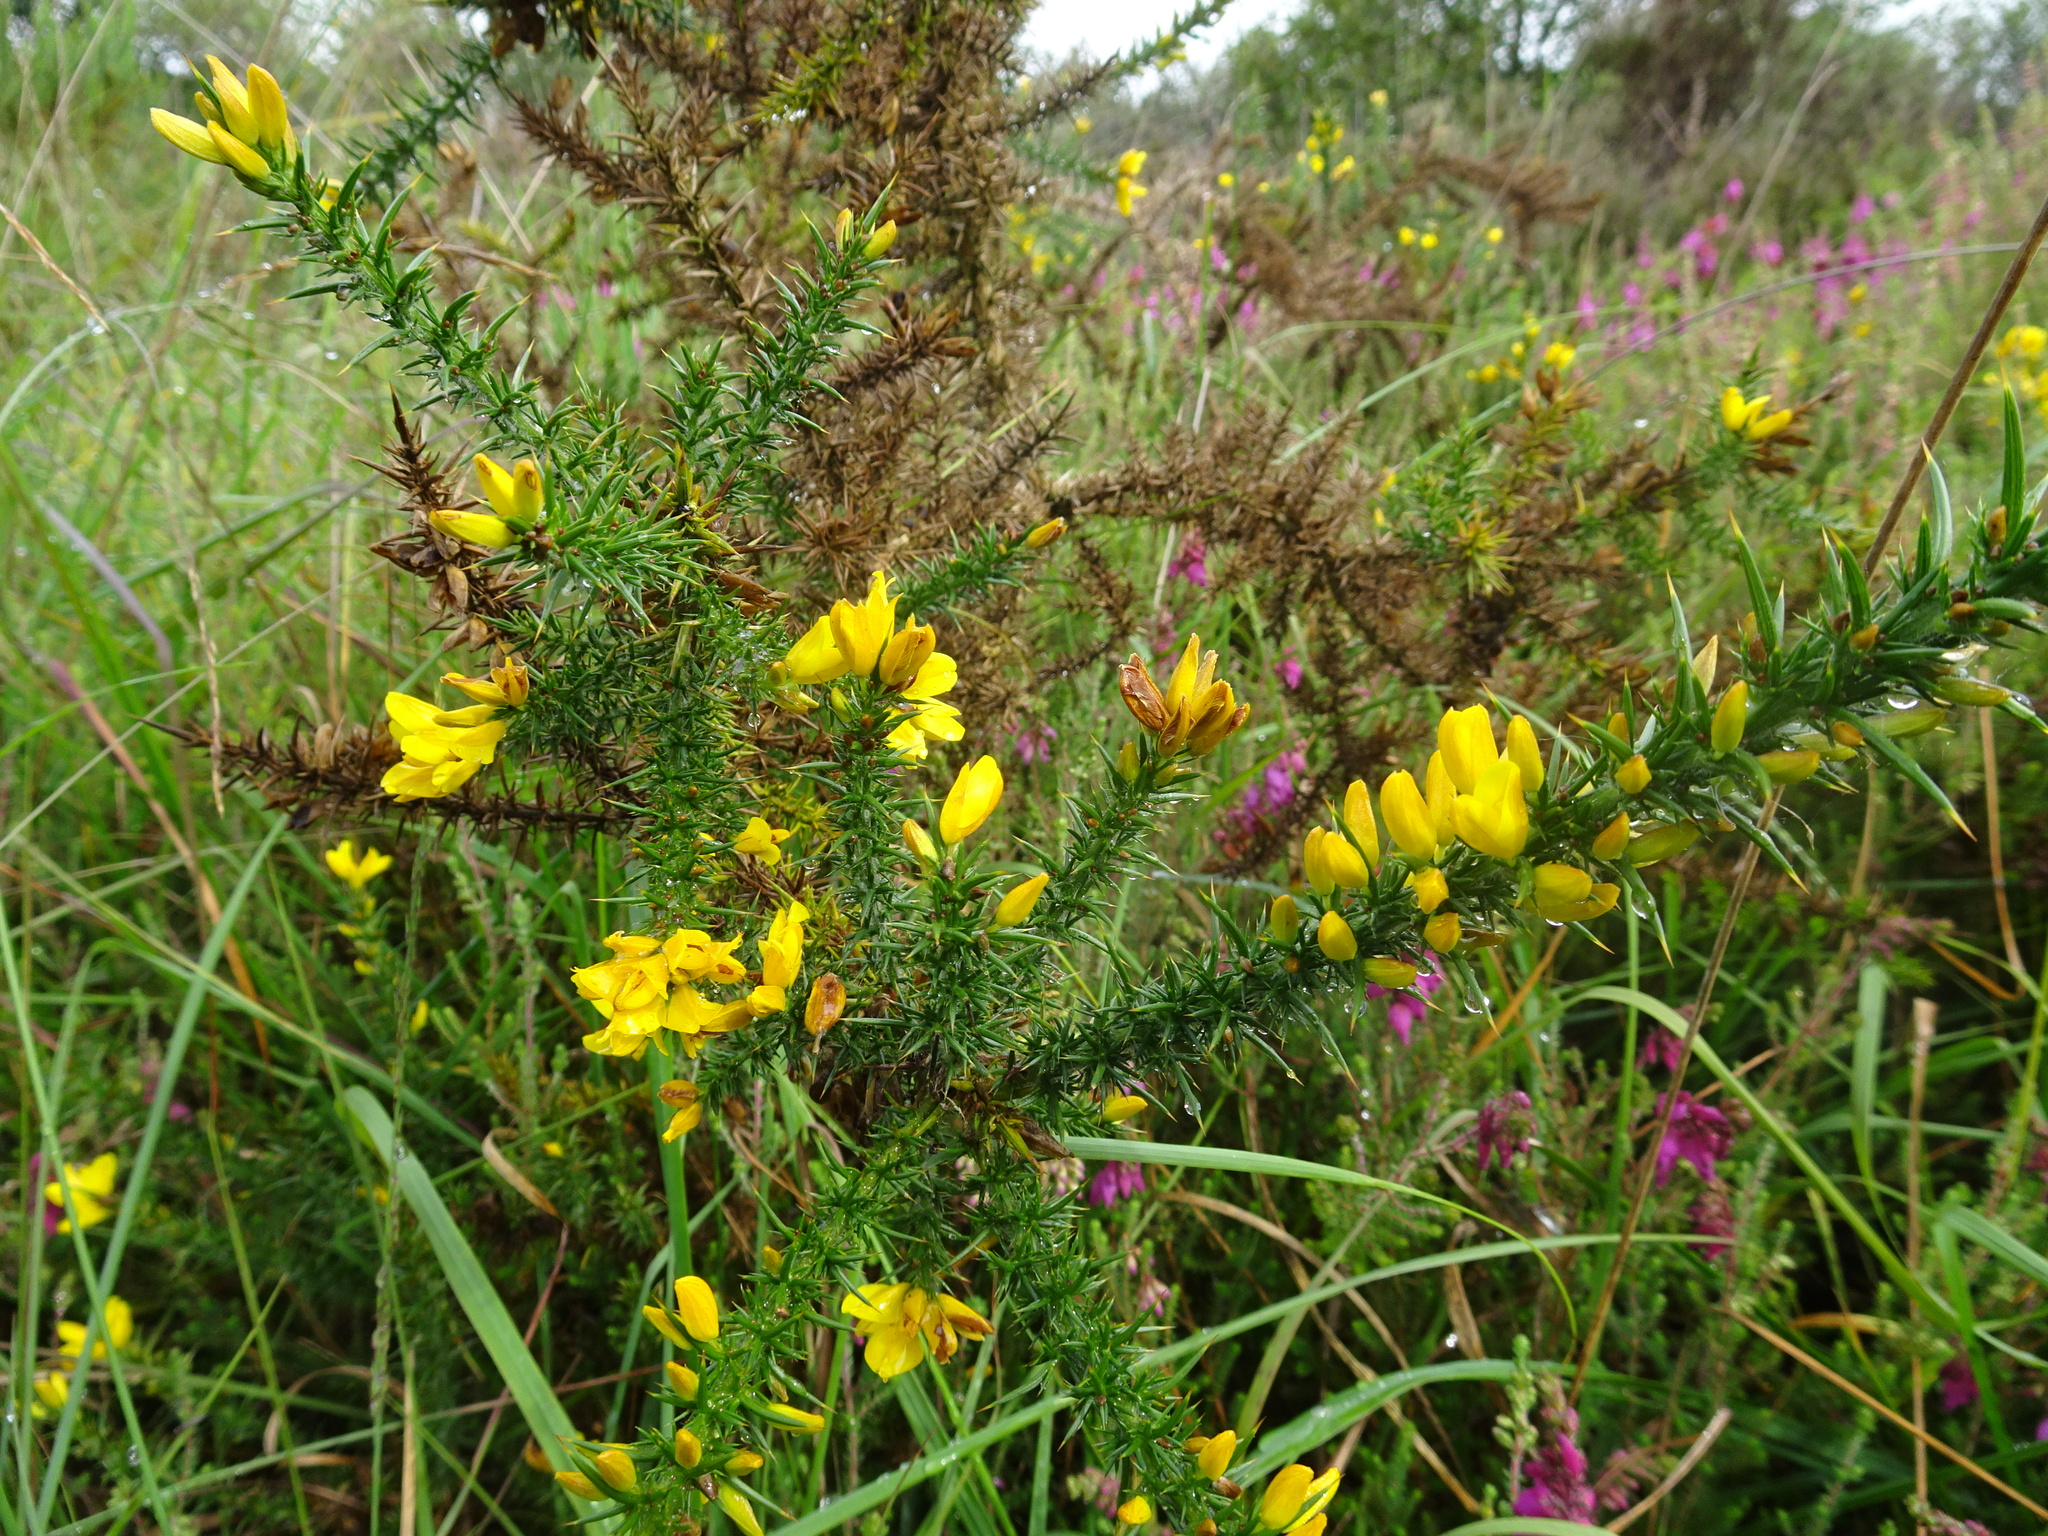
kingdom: Plantae
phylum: Tracheophyta
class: Magnoliopsida
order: Fabales
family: Fabaceae
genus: Ulex
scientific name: Ulex minor
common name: Dwarf gorse
